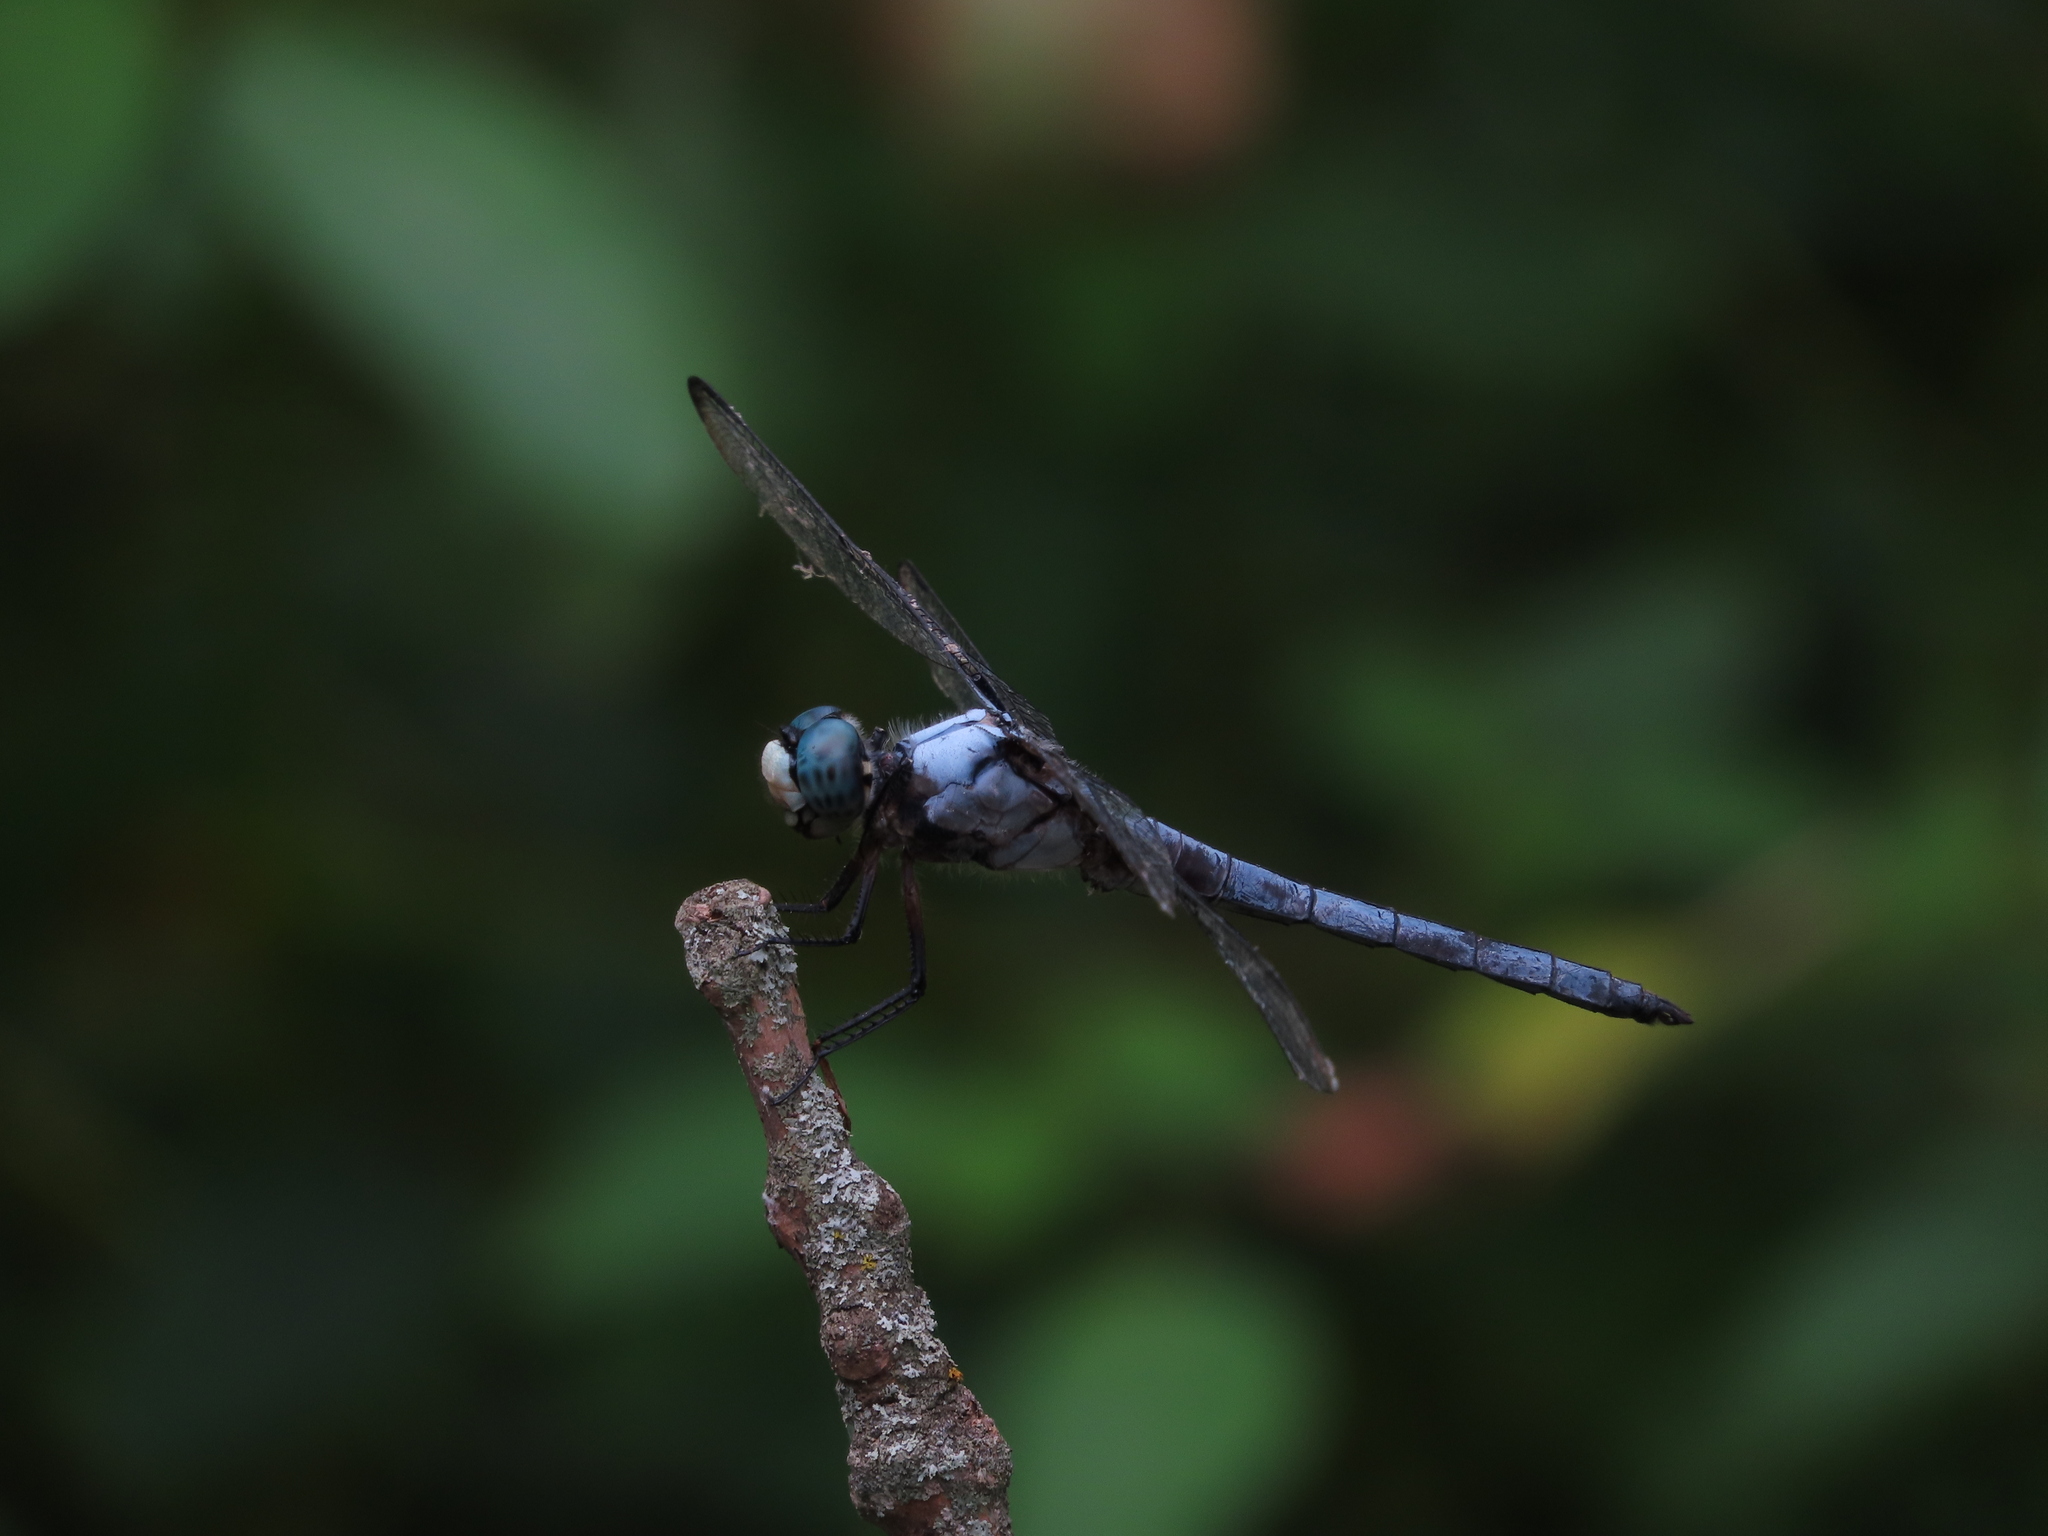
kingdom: Animalia
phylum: Arthropoda
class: Insecta
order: Odonata
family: Libellulidae
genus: Libellula
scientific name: Libellula vibrans
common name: Great blue skimmer
